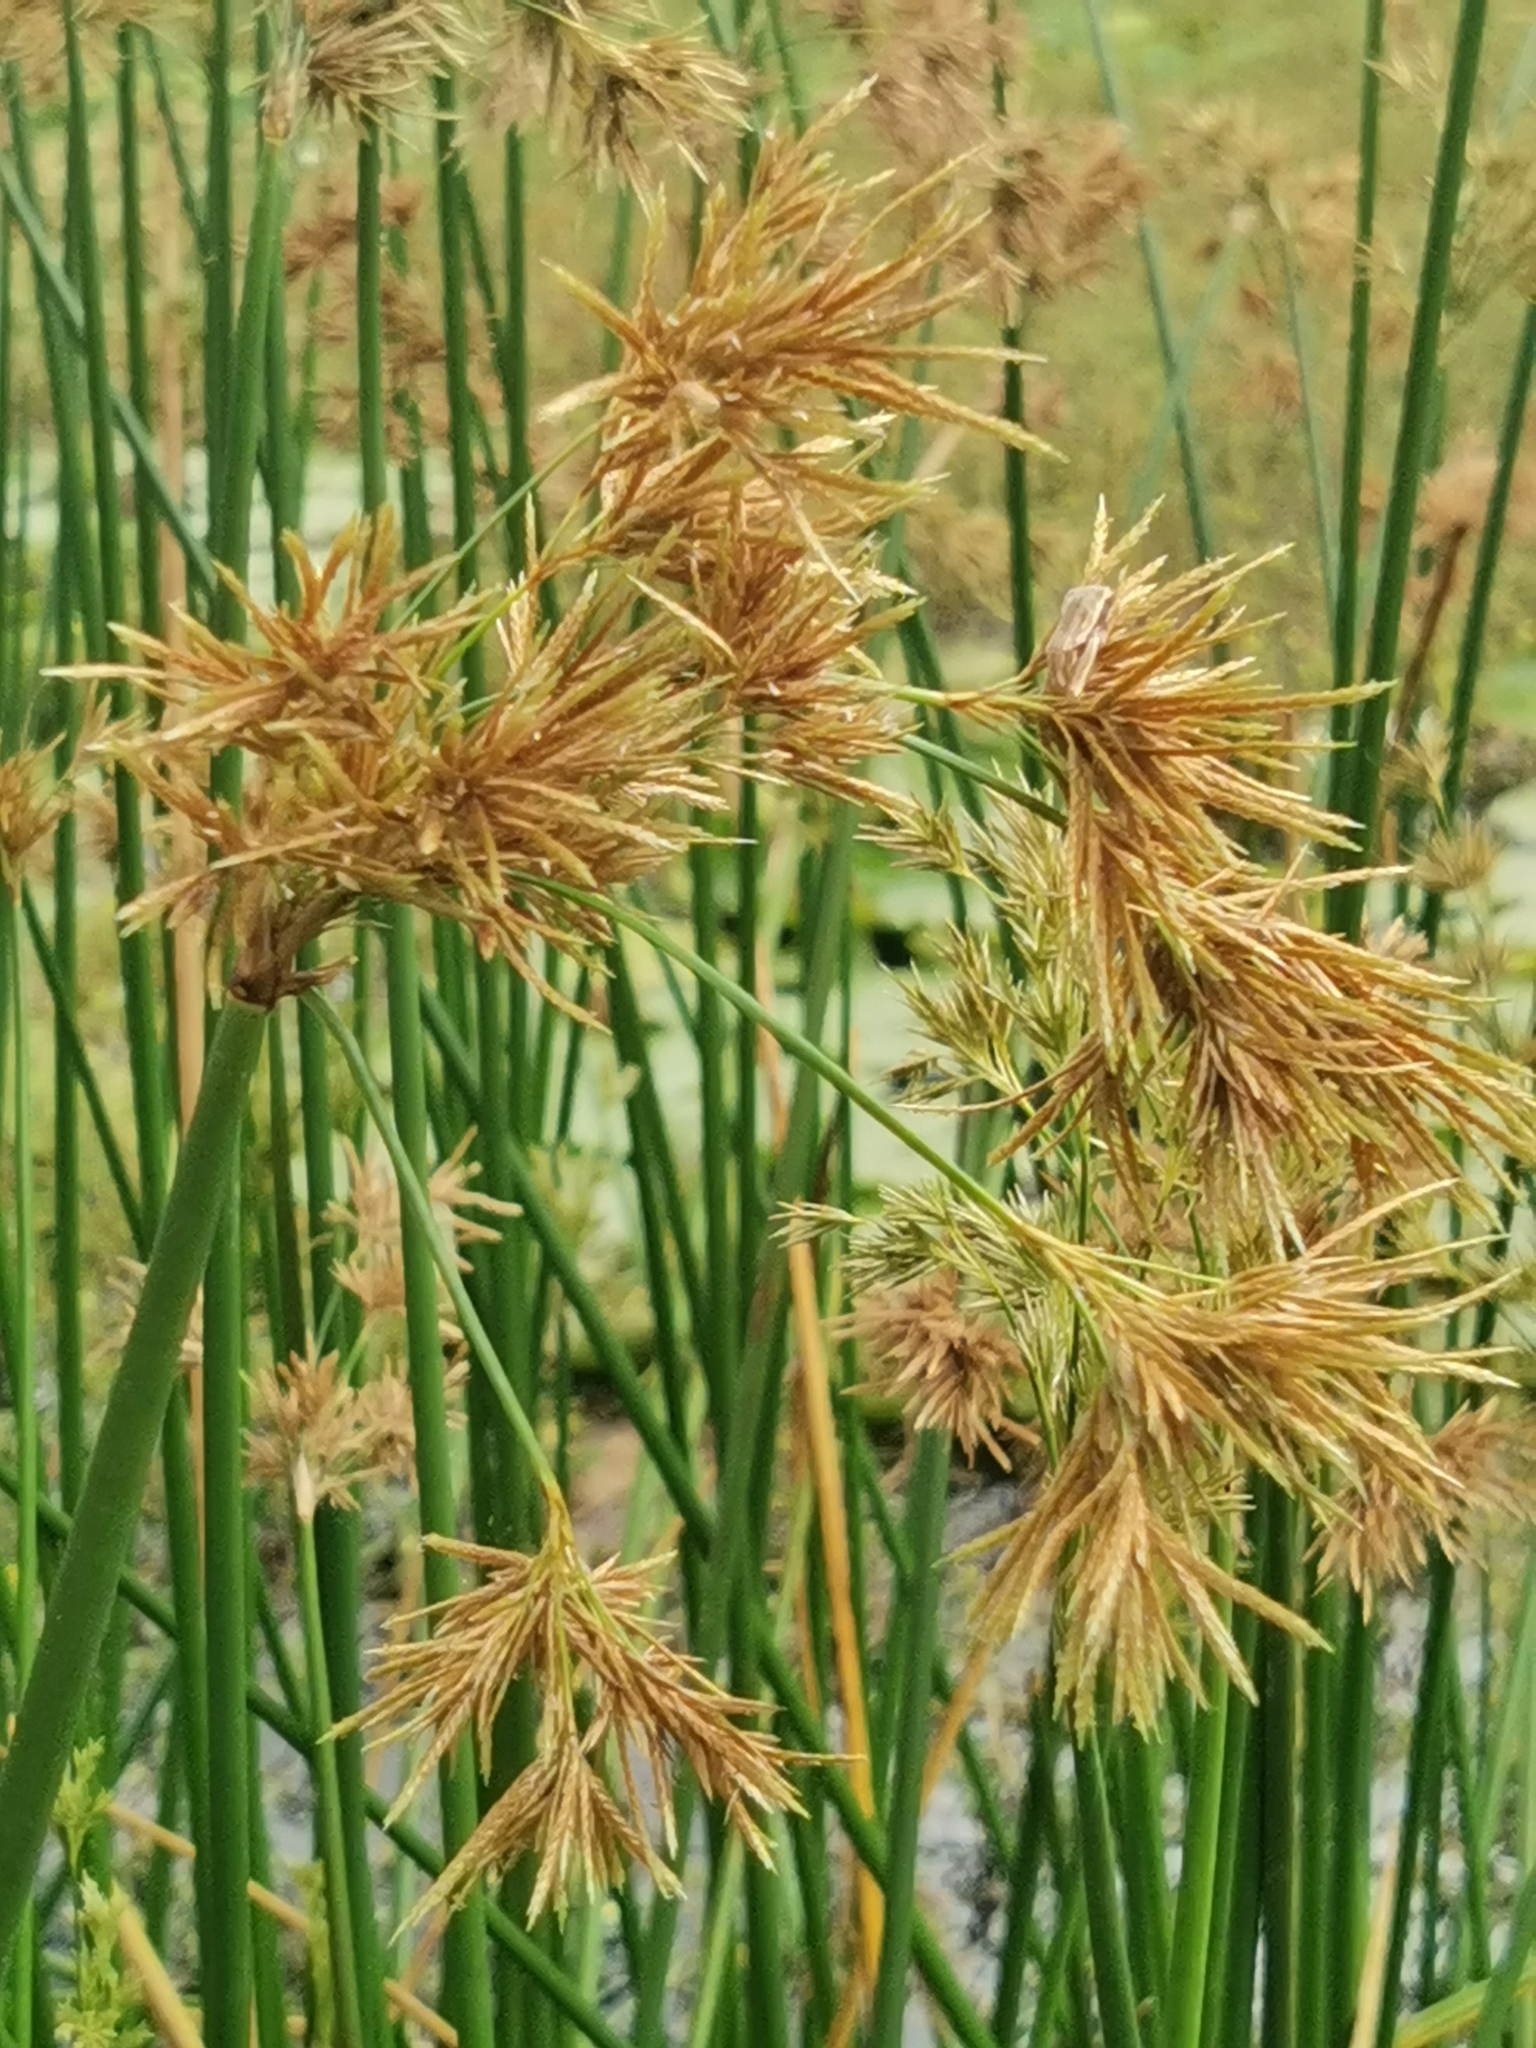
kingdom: Plantae
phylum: Tracheophyta
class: Liliopsida
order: Poales
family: Cyperaceae
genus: Cyperus
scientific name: Cyperus articulatus
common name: Jointed flatsedge
